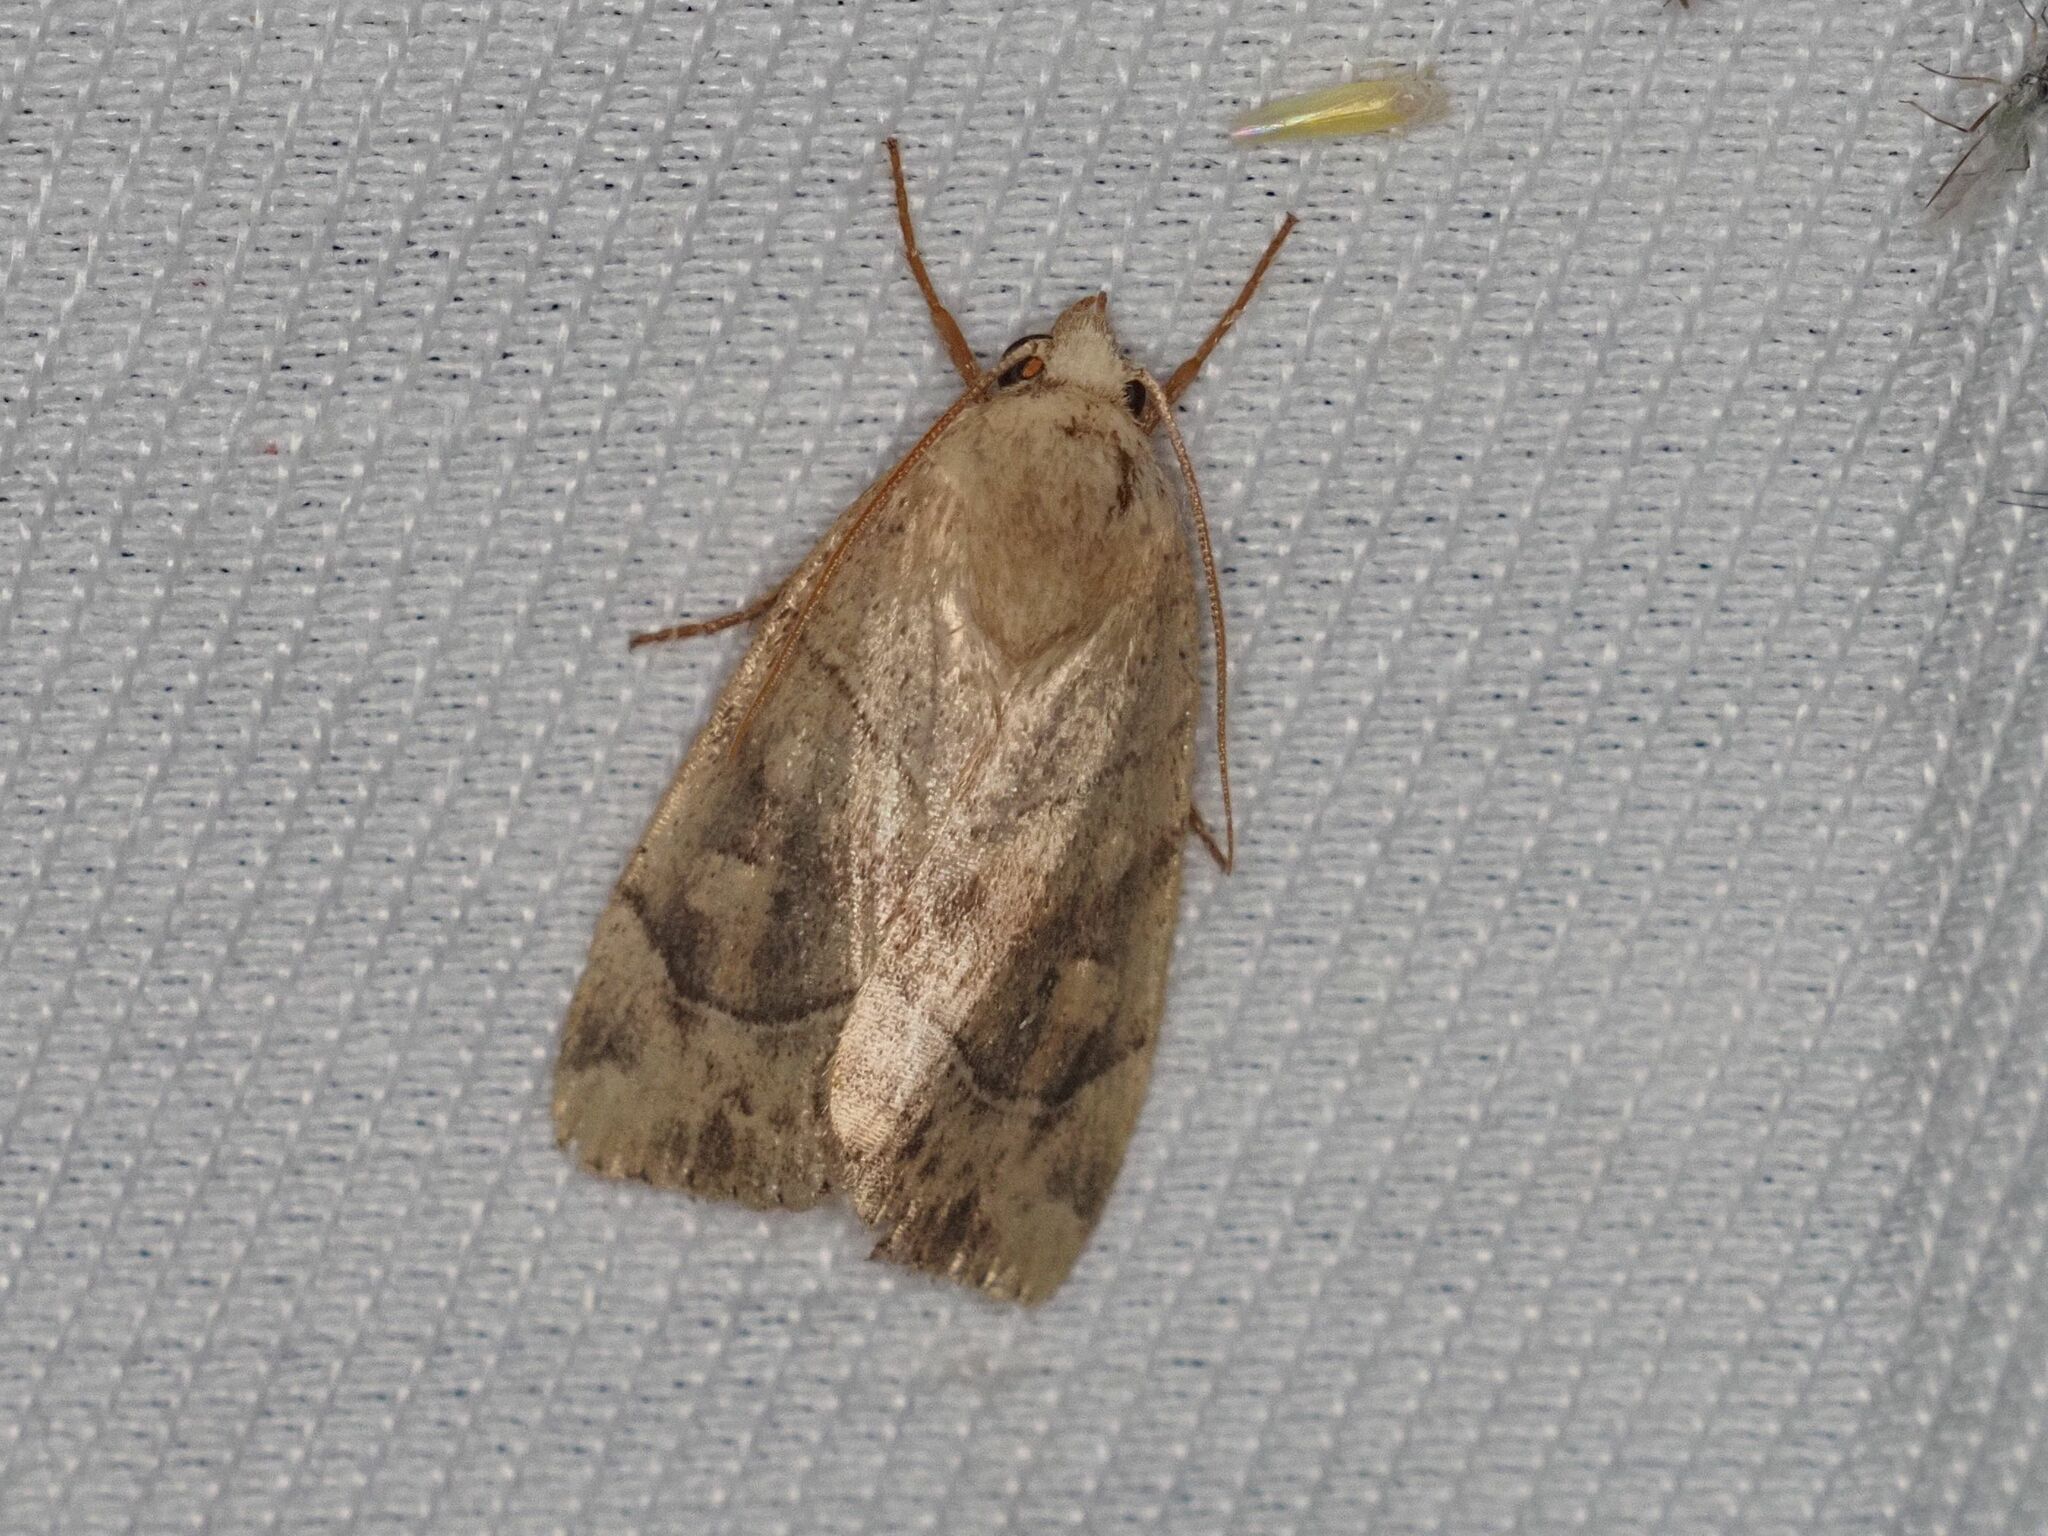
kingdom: Animalia
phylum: Arthropoda
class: Insecta
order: Lepidoptera
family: Noctuidae
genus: Cosmia
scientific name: Cosmia trapezina
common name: Dun-bar
